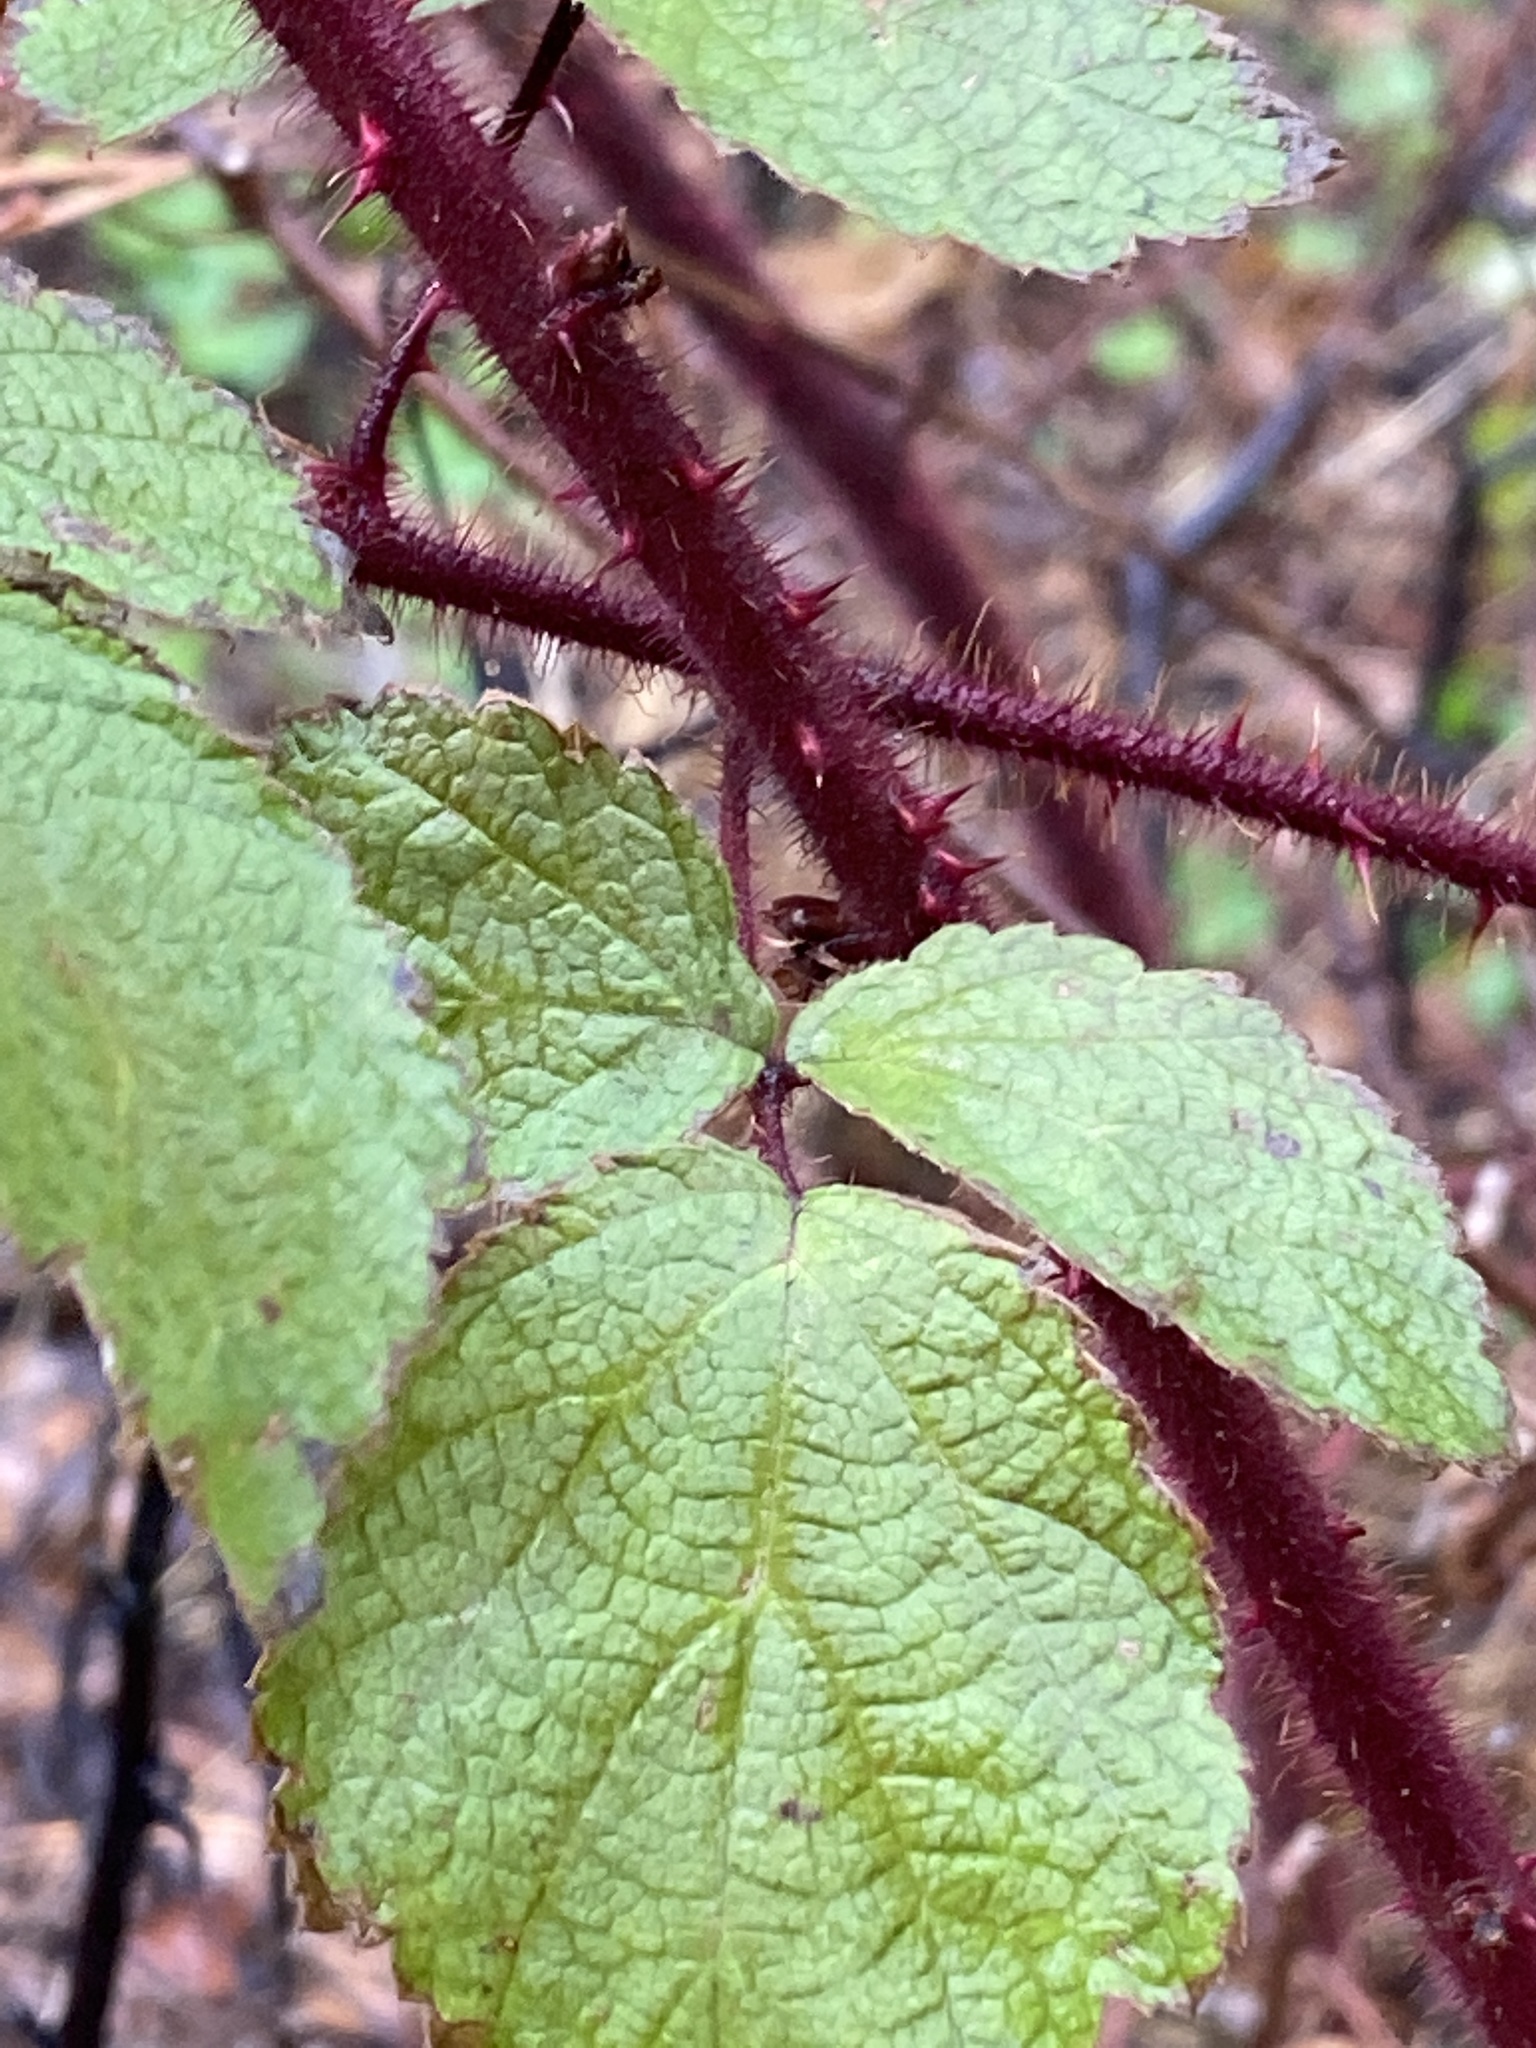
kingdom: Plantae
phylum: Tracheophyta
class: Magnoliopsida
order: Rosales
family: Rosaceae
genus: Rubus
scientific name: Rubus phoenicolasius
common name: Japanese wineberry
